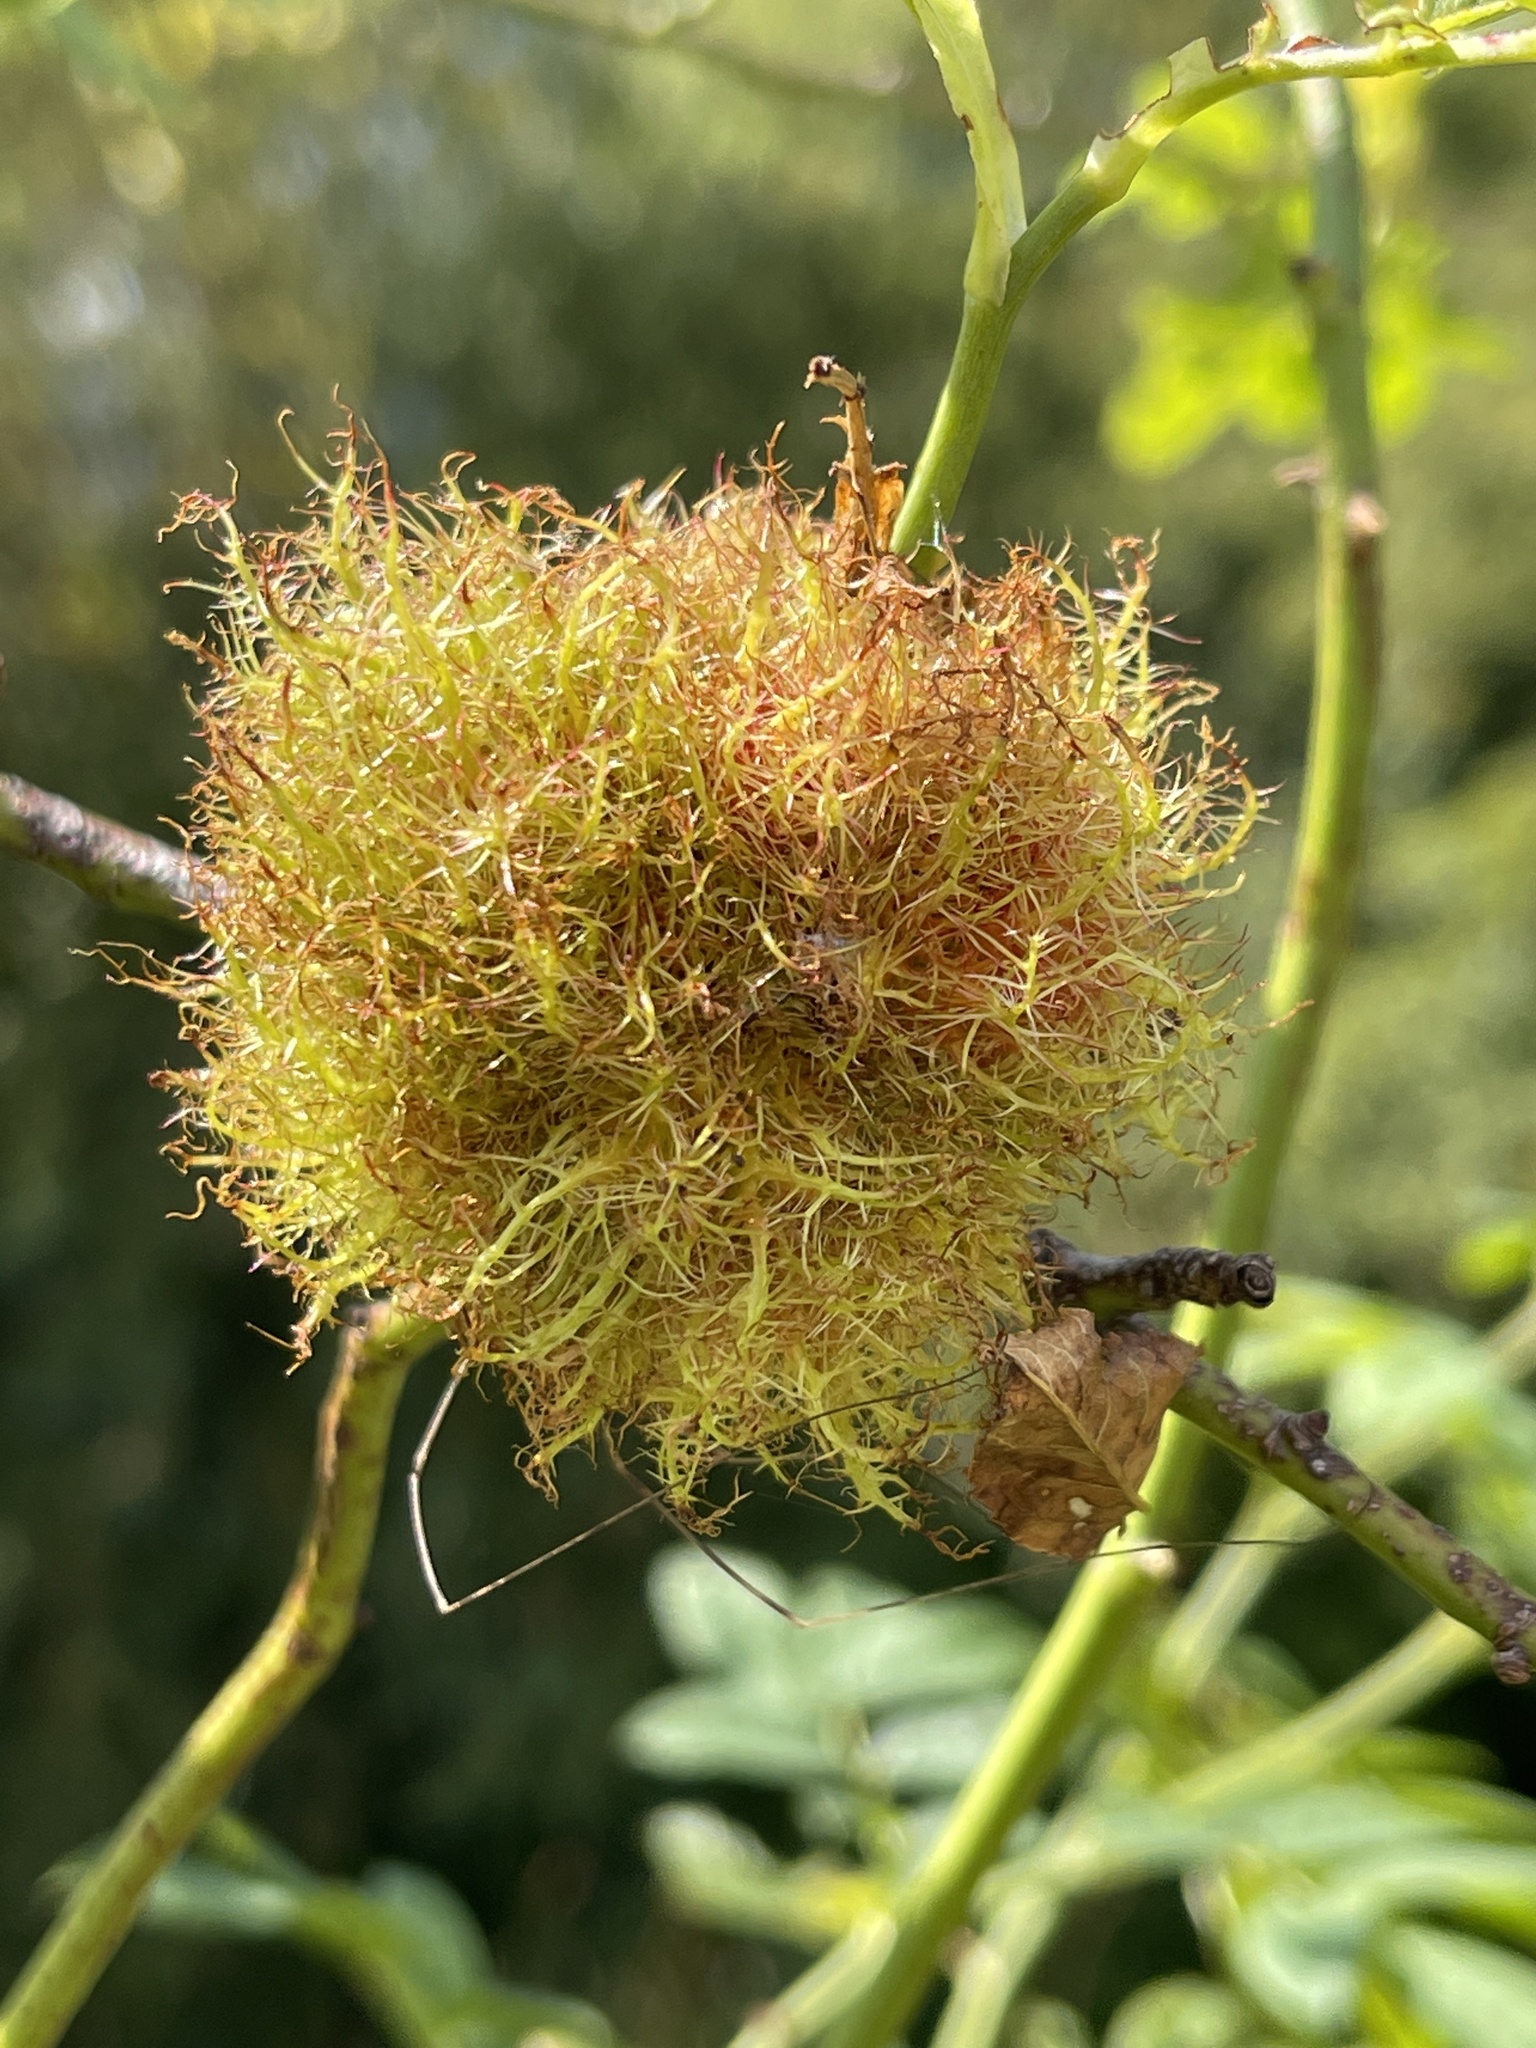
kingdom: Animalia
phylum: Arthropoda
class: Insecta
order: Hymenoptera
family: Cynipidae
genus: Diplolepis
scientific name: Diplolepis rosae
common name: Bedeguar gall
